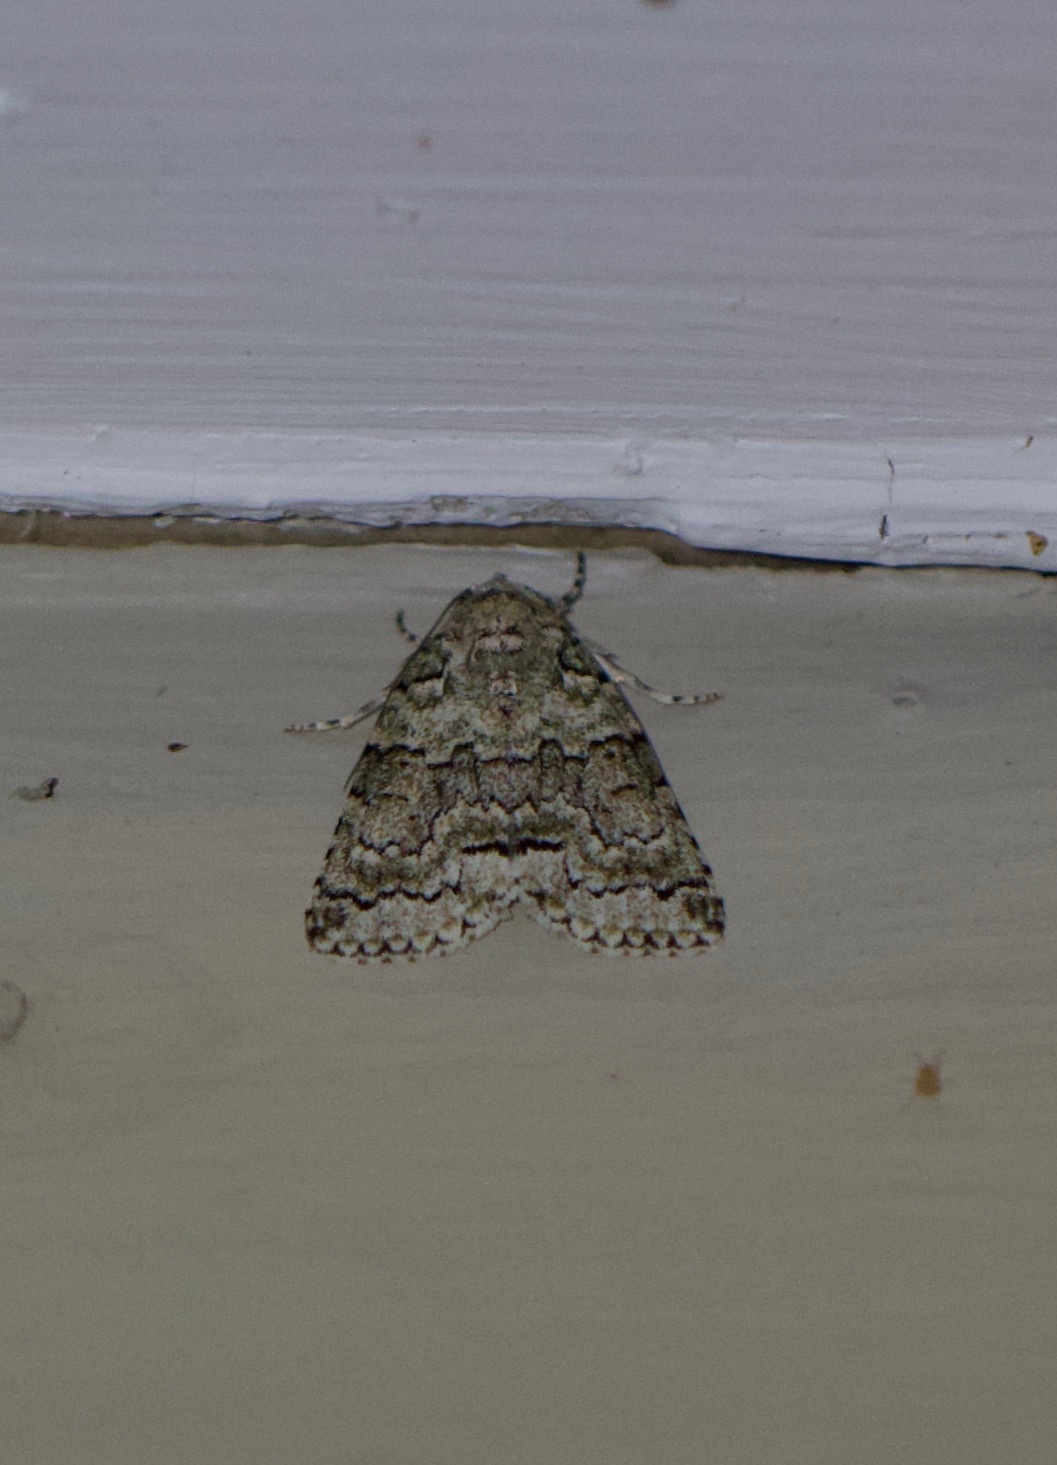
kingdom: Animalia
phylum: Arthropoda
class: Insecta
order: Lepidoptera
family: Nolidae
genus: Blenina
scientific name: Blenina squamifera
